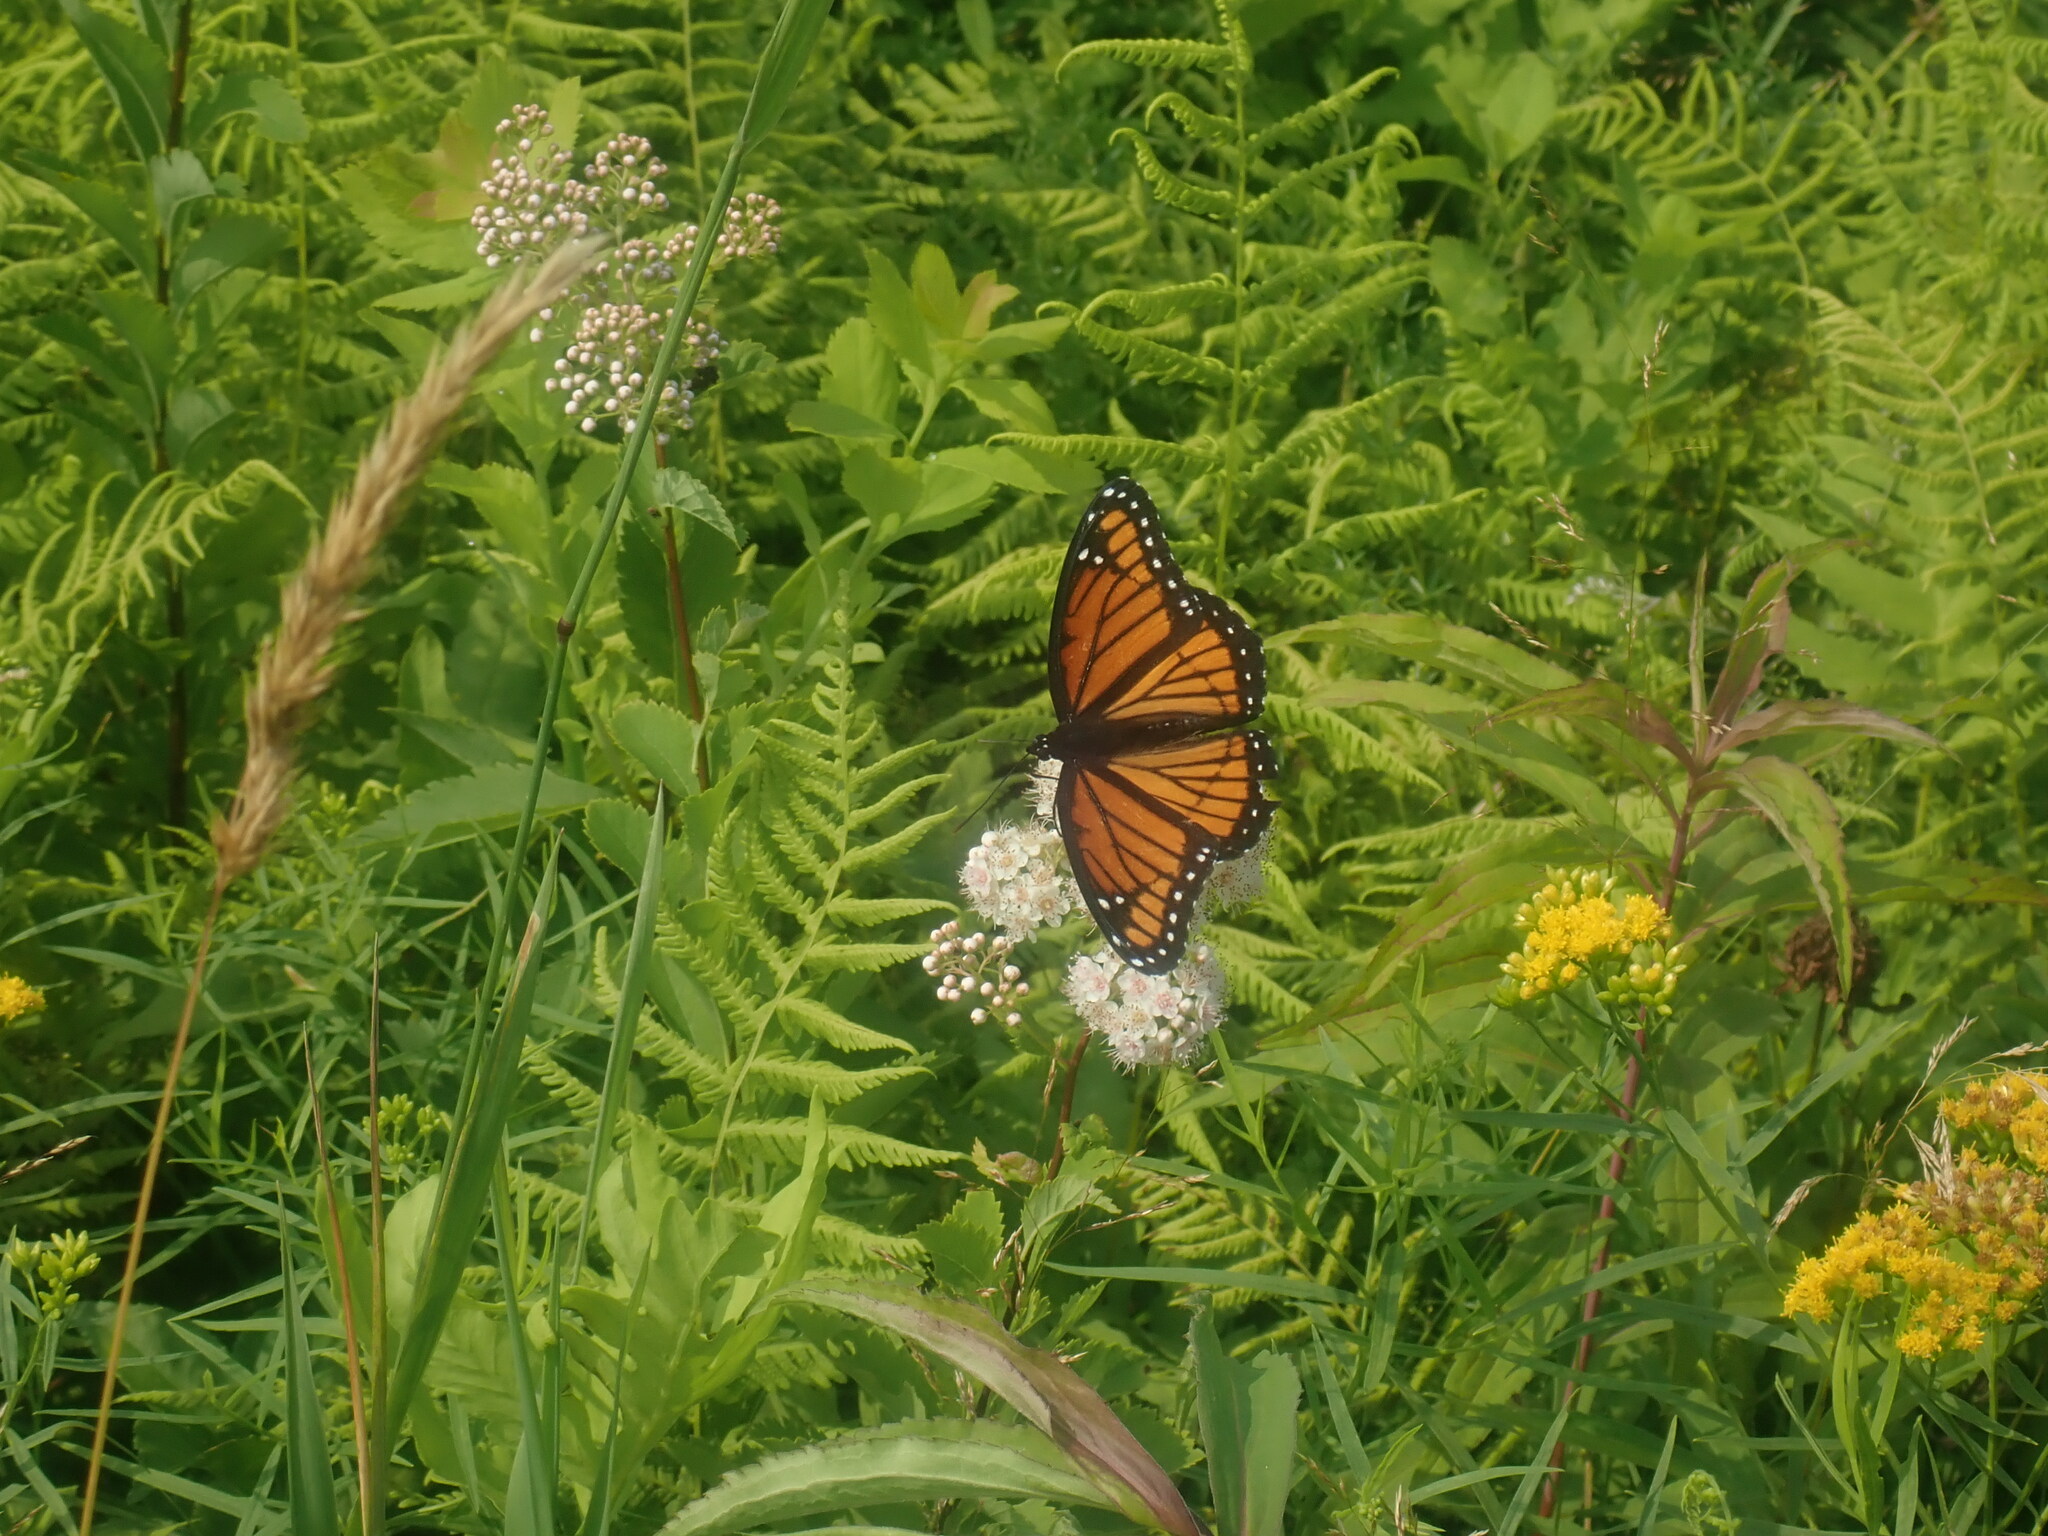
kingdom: Animalia
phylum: Arthropoda
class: Insecta
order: Lepidoptera
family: Nymphalidae
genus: Limenitis
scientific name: Limenitis archippus
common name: Viceroy
